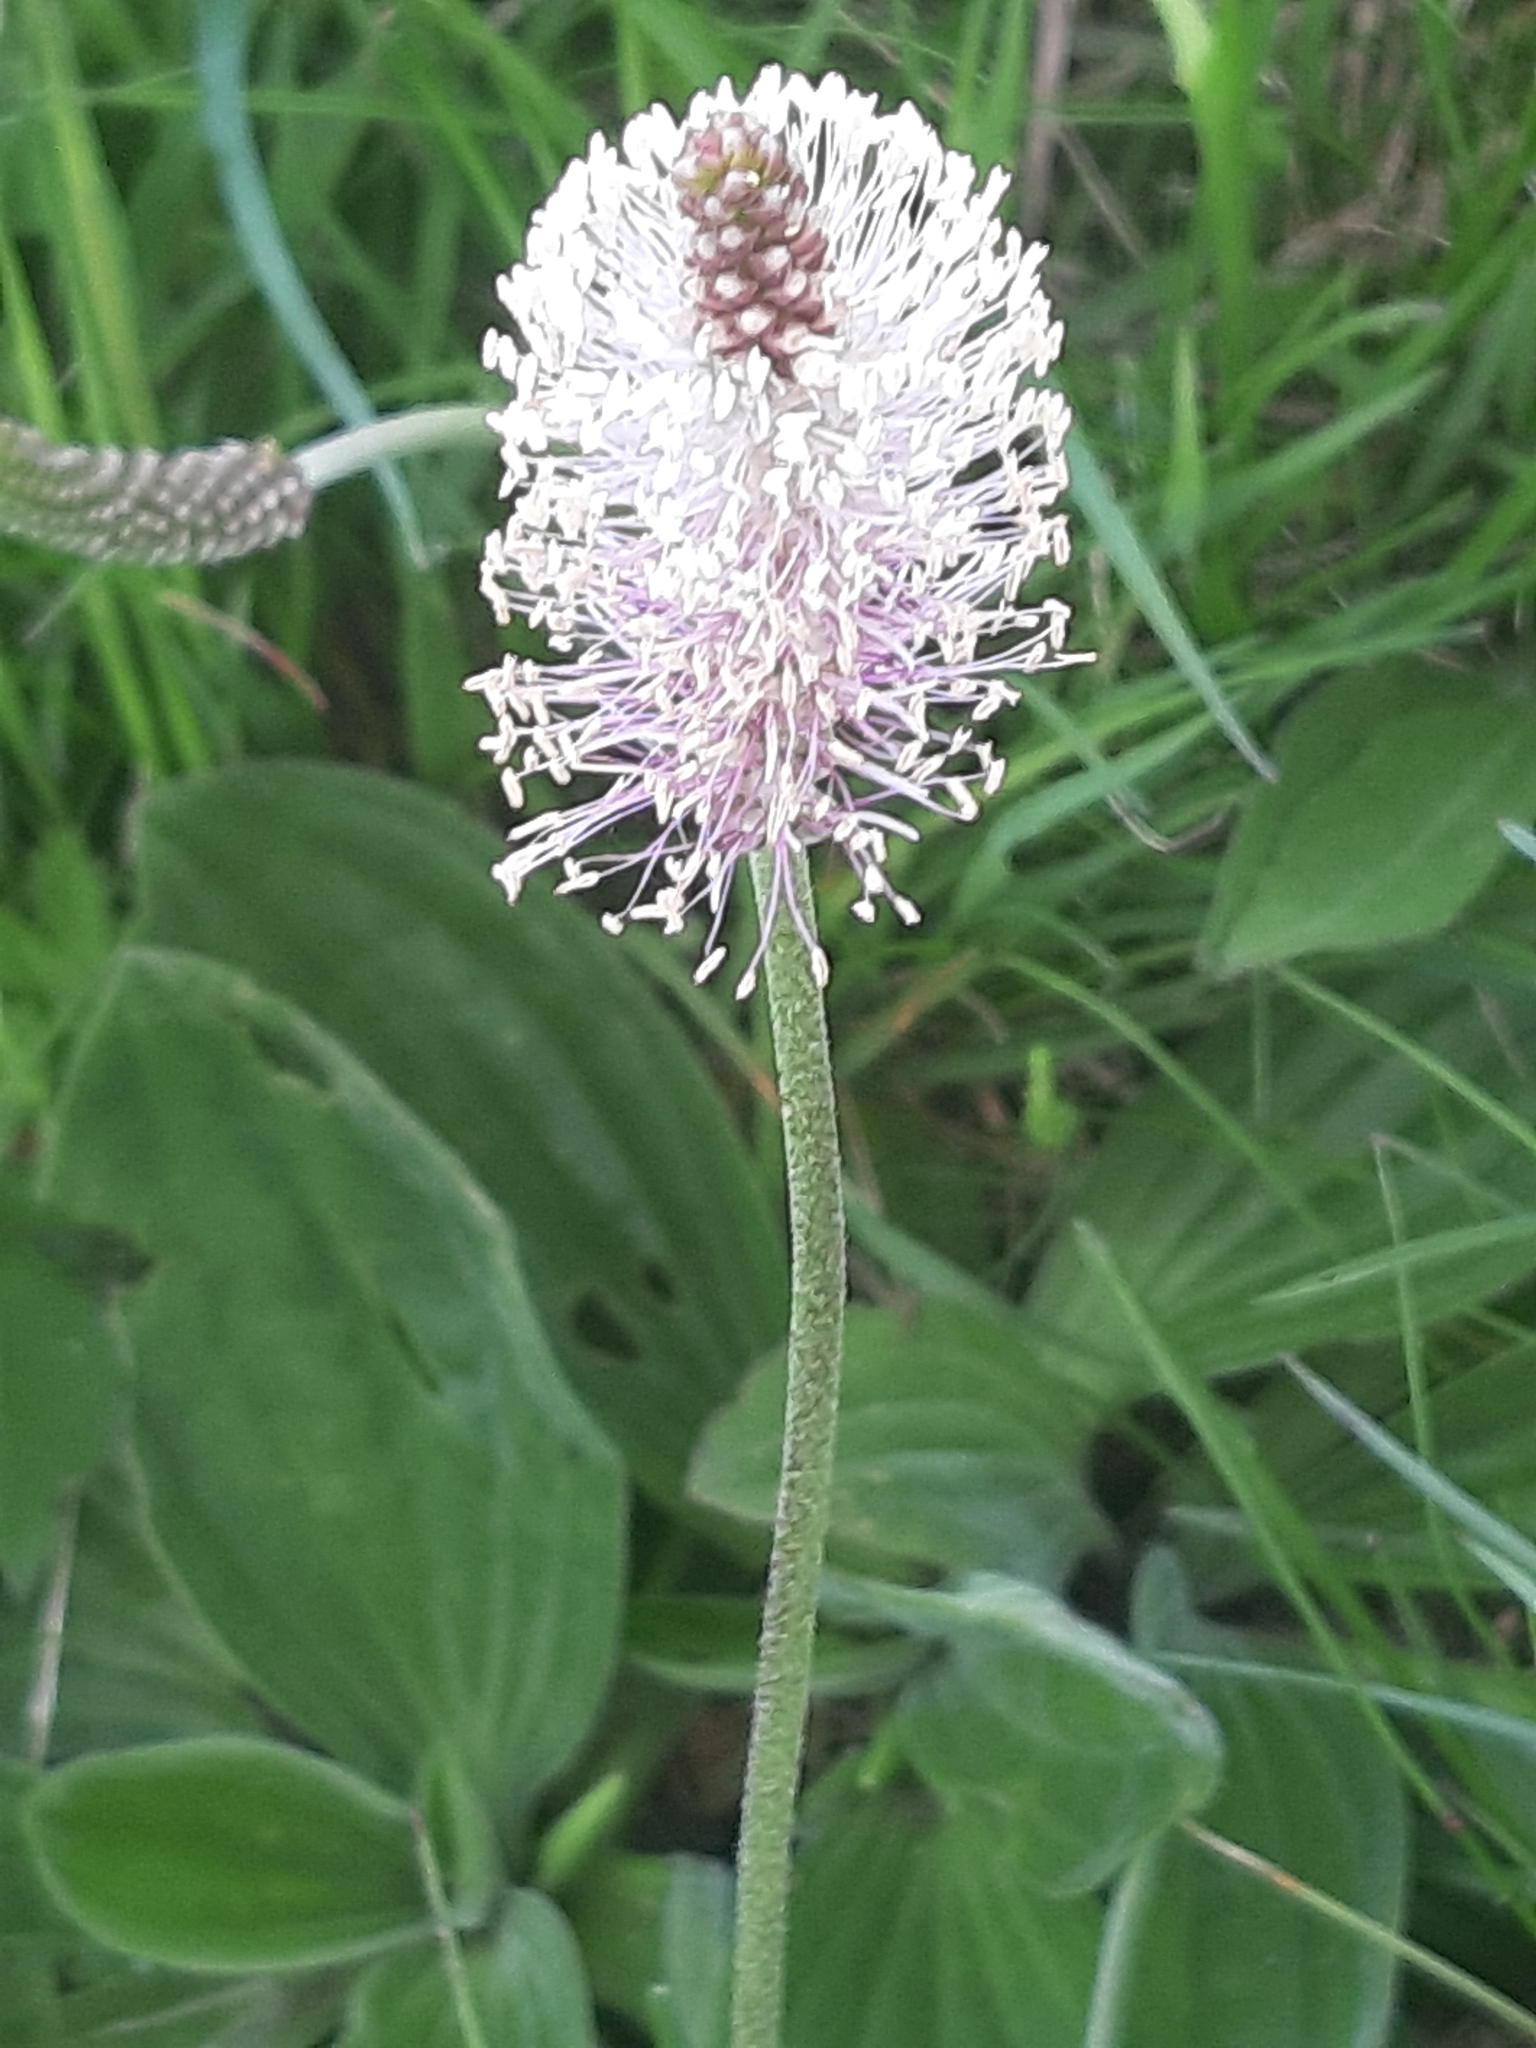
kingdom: Plantae
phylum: Tracheophyta
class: Magnoliopsida
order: Lamiales
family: Plantaginaceae
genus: Plantago
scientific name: Plantago media
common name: Hoary plantain
